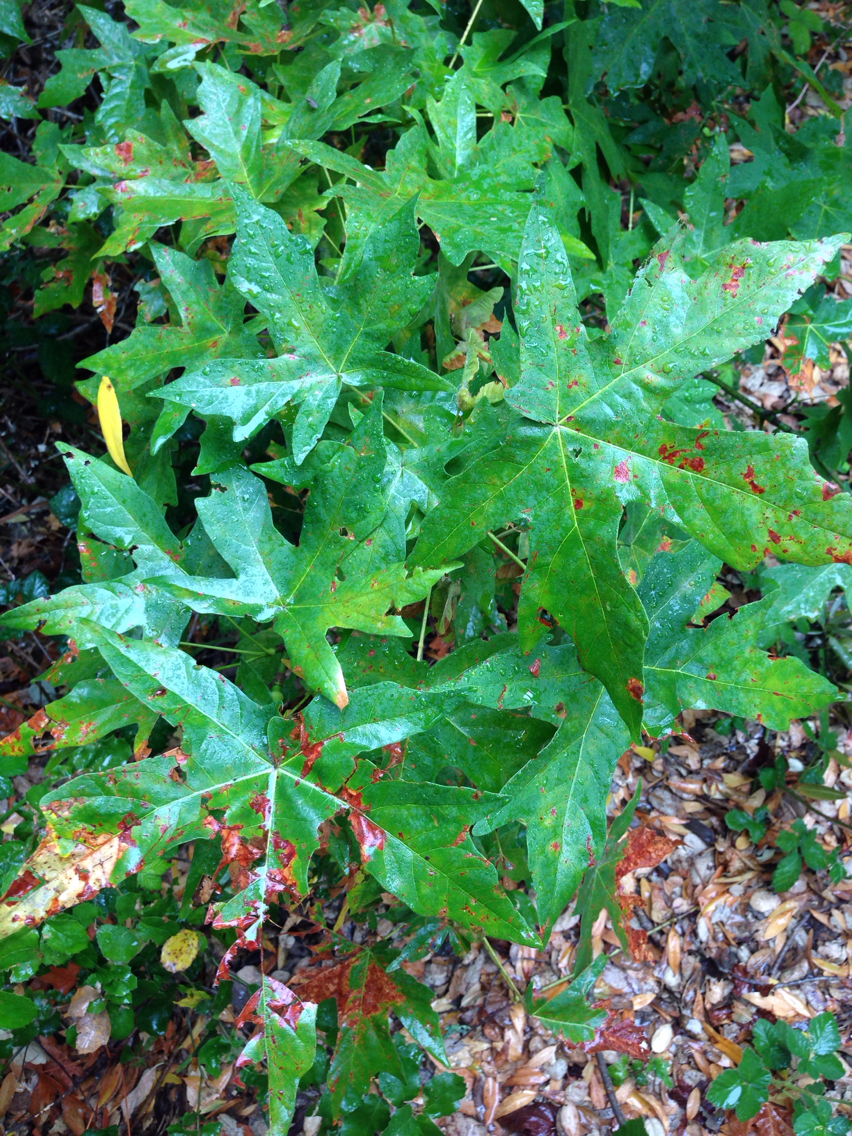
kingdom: Plantae
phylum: Tracheophyta
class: Magnoliopsida
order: Sapindales
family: Sapindaceae
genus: Acer
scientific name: Acer macrophyllum
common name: Oregon maple
